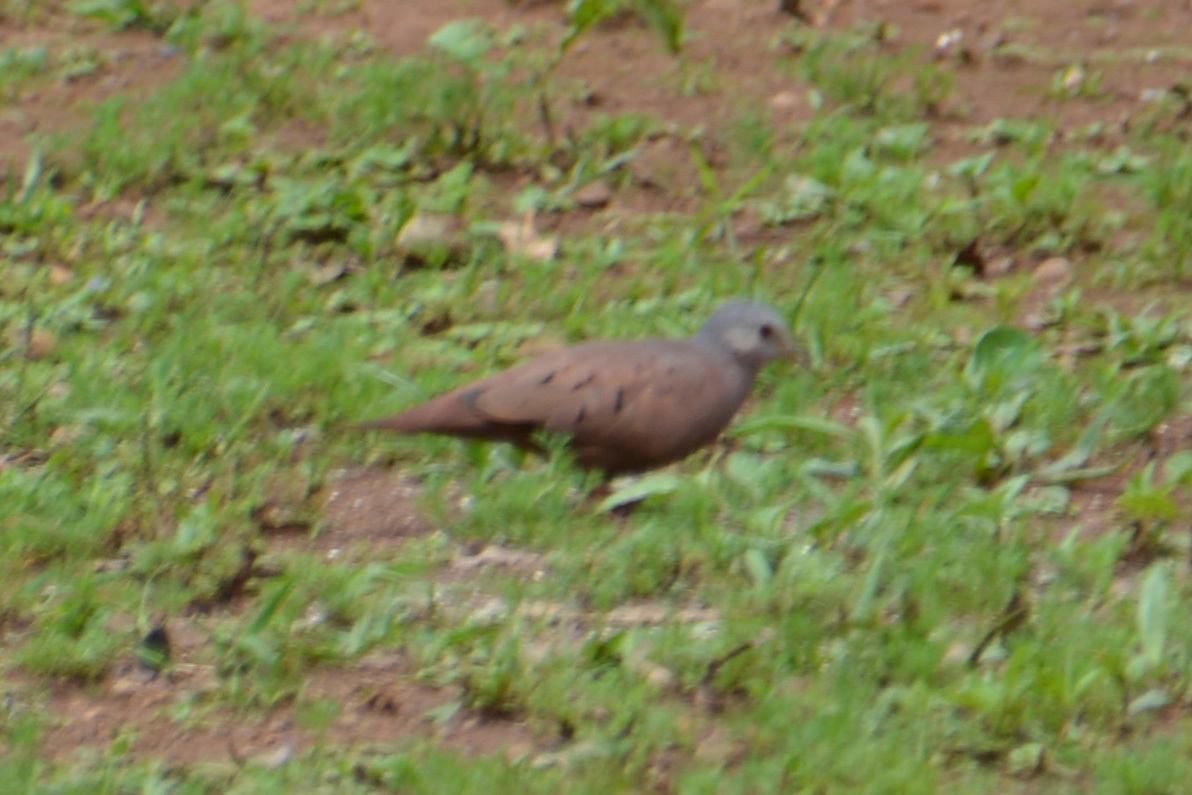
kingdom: Animalia
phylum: Chordata
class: Aves
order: Columbiformes
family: Columbidae
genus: Columbina
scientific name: Columbina talpacoti
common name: Ruddy ground dove
